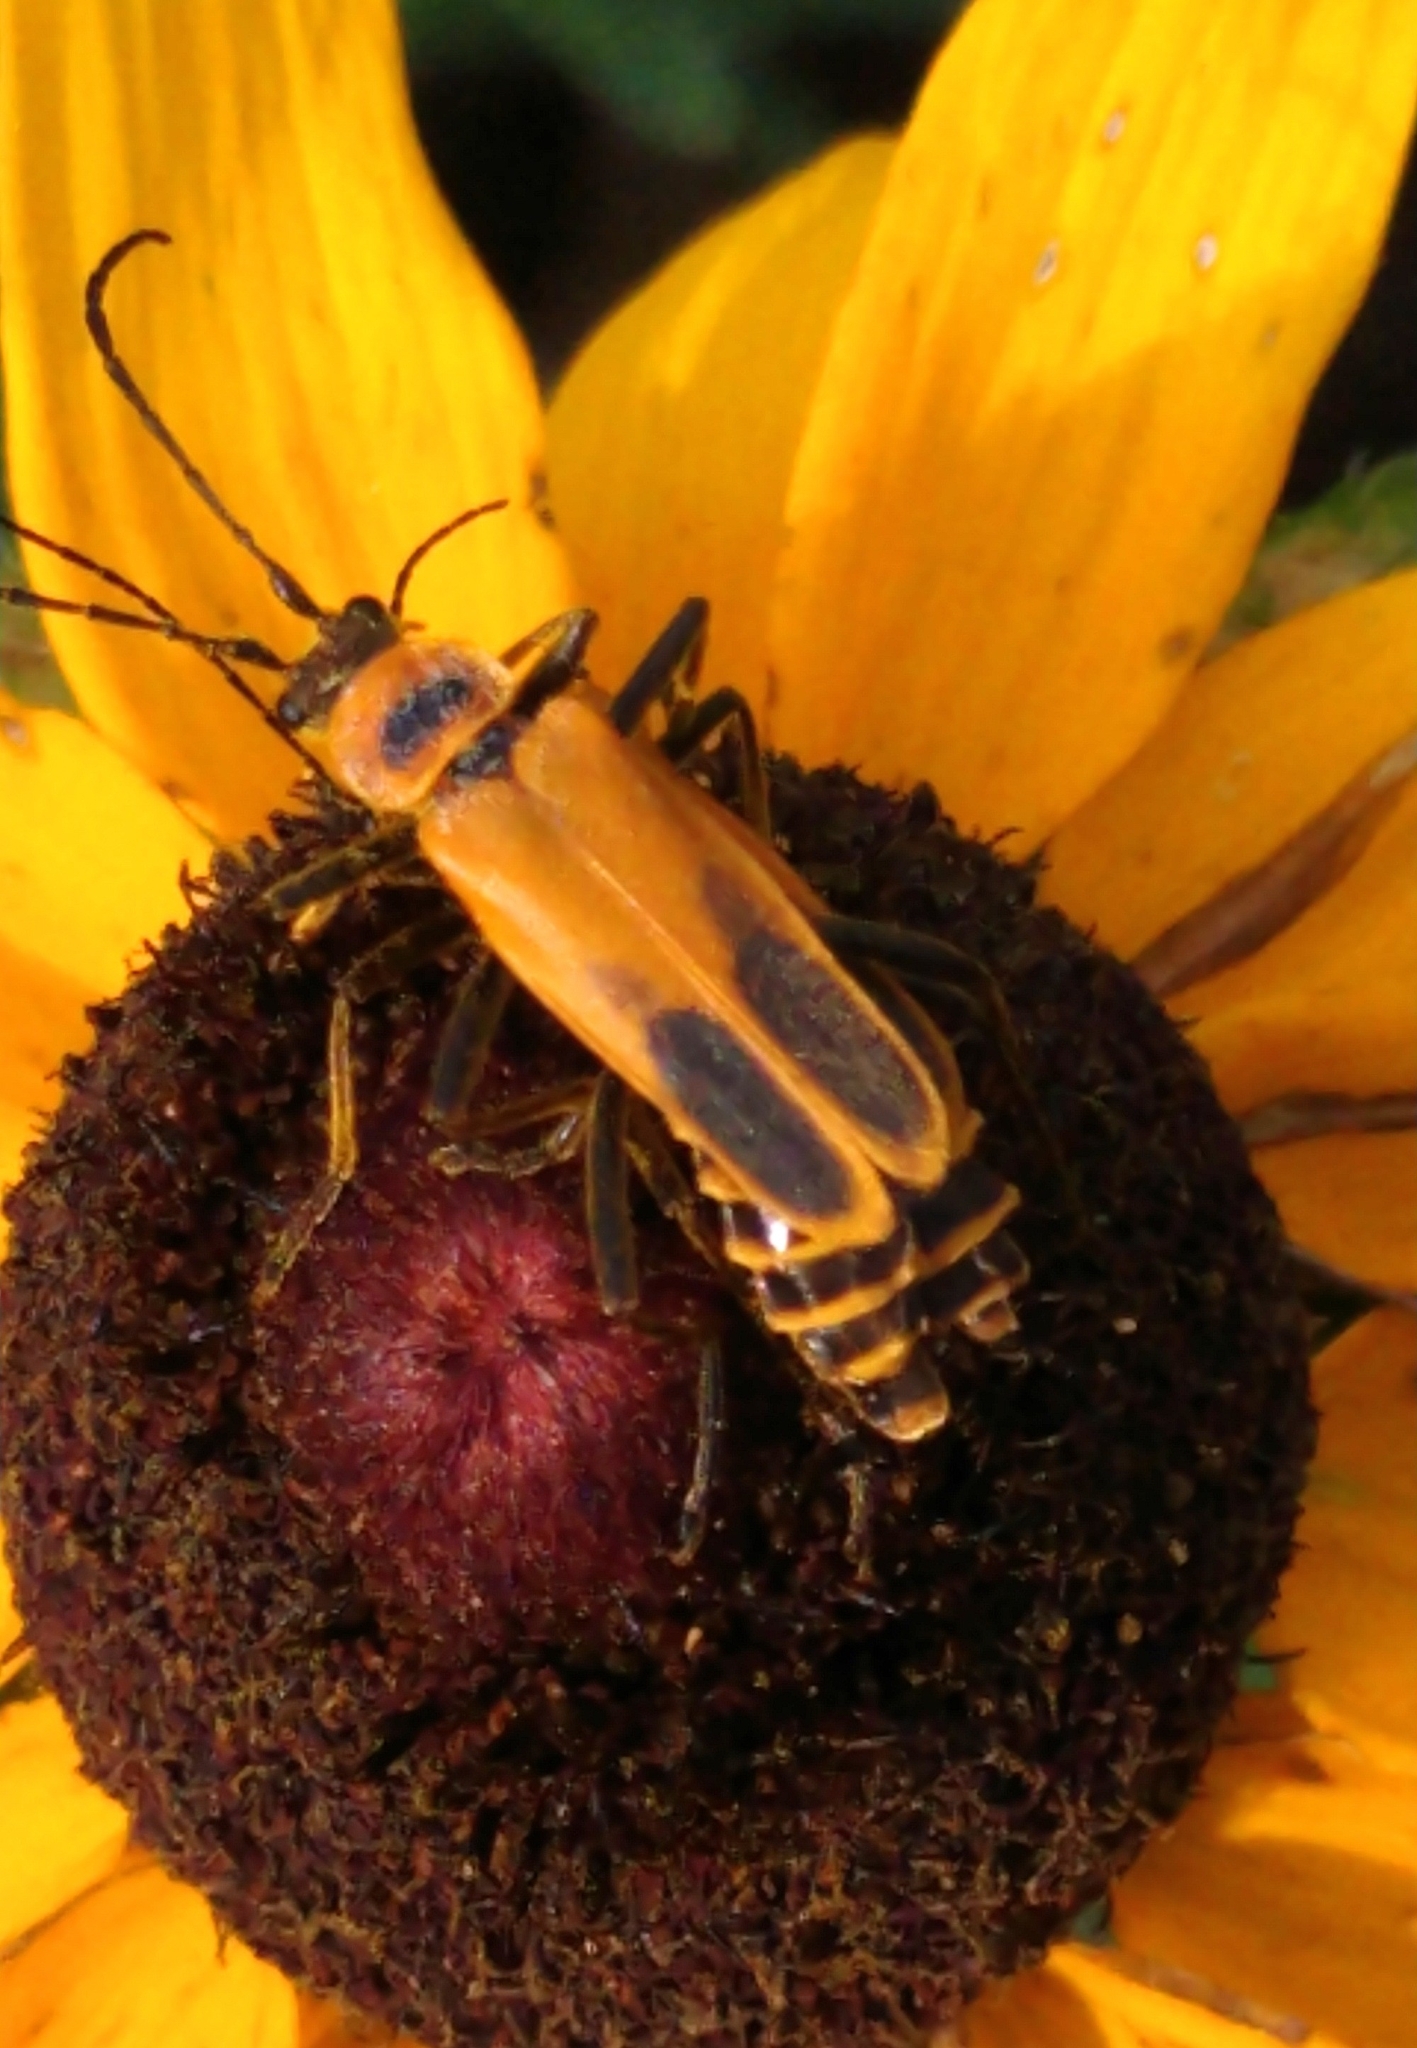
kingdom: Animalia
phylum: Arthropoda
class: Insecta
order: Coleoptera
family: Cantharidae
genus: Chauliognathus
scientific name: Chauliognathus pensylvanicus
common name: Goldenrod soldier beetle
